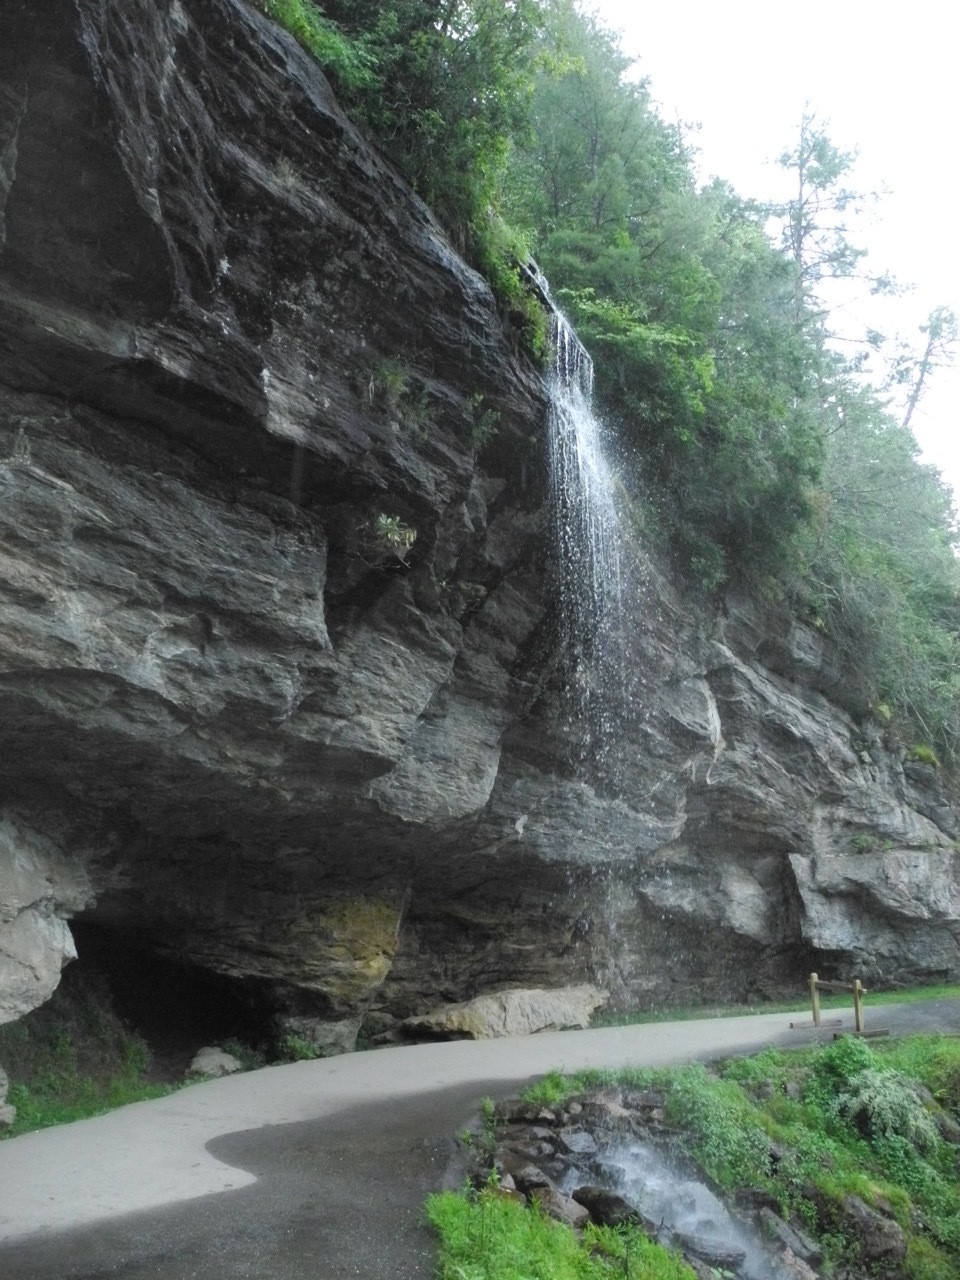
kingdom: Plantae
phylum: Tracheophyta
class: Magnoliopsida
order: Saxifragales
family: Saxifragaceae
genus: Micranthes
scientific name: Micranthes petiolaris
